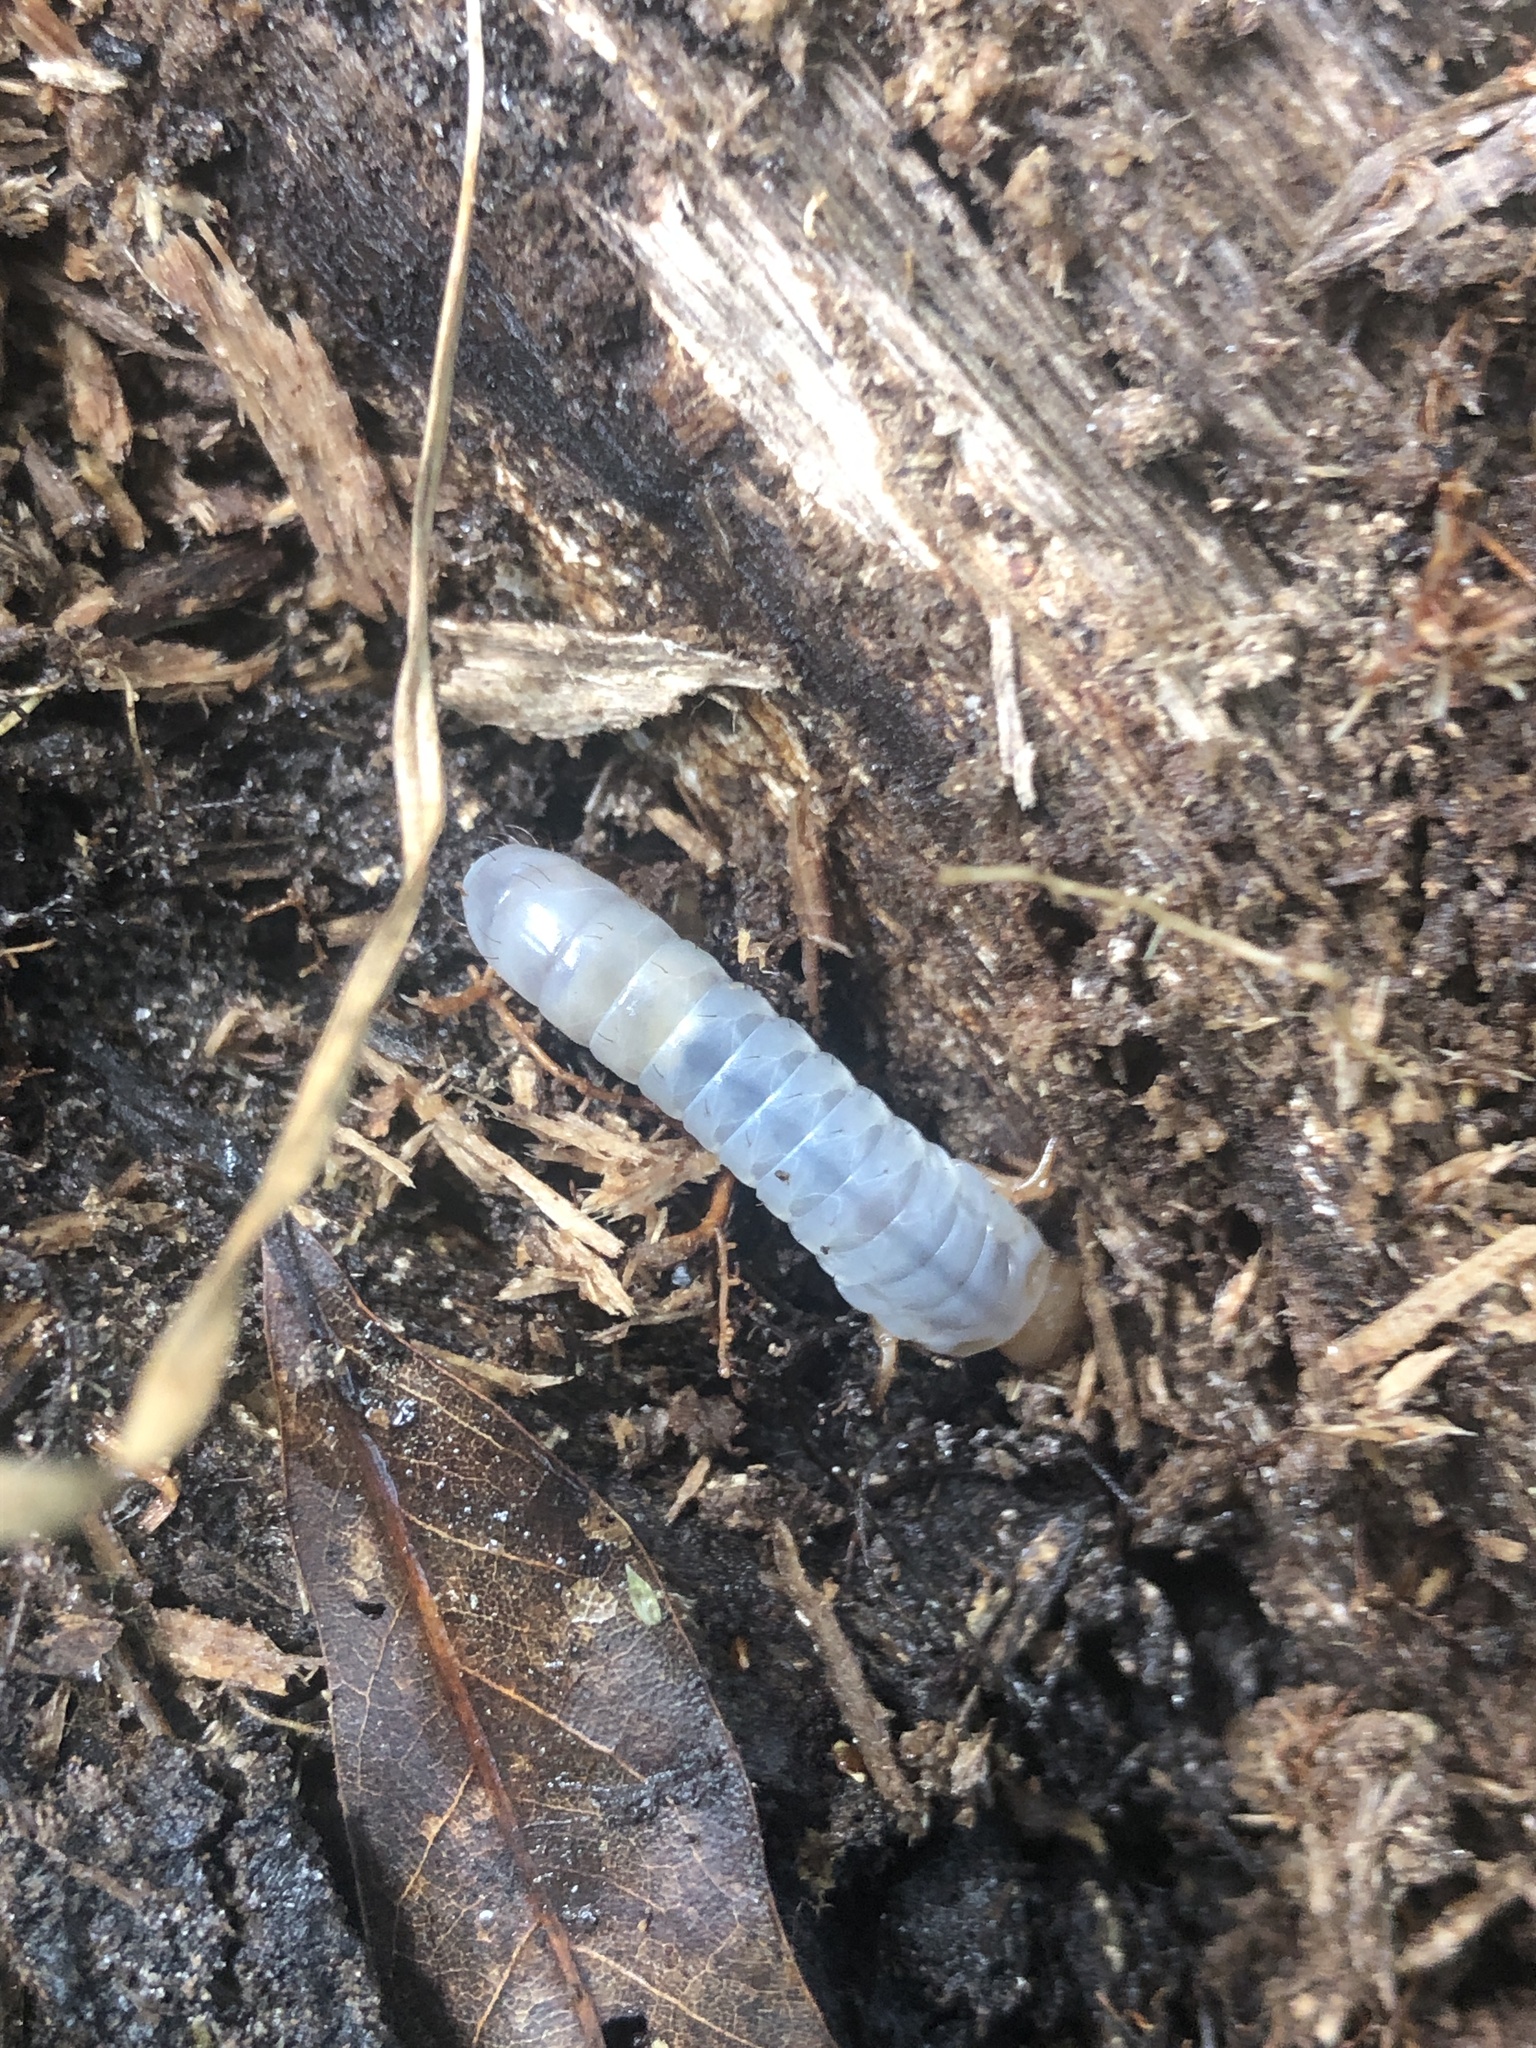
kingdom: Animalia
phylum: Arthropoda
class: Insecta
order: Coleoptera
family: Passalidae
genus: Odontotaenius
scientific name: Odontotaenius disjunctus
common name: Patent leather beetle
